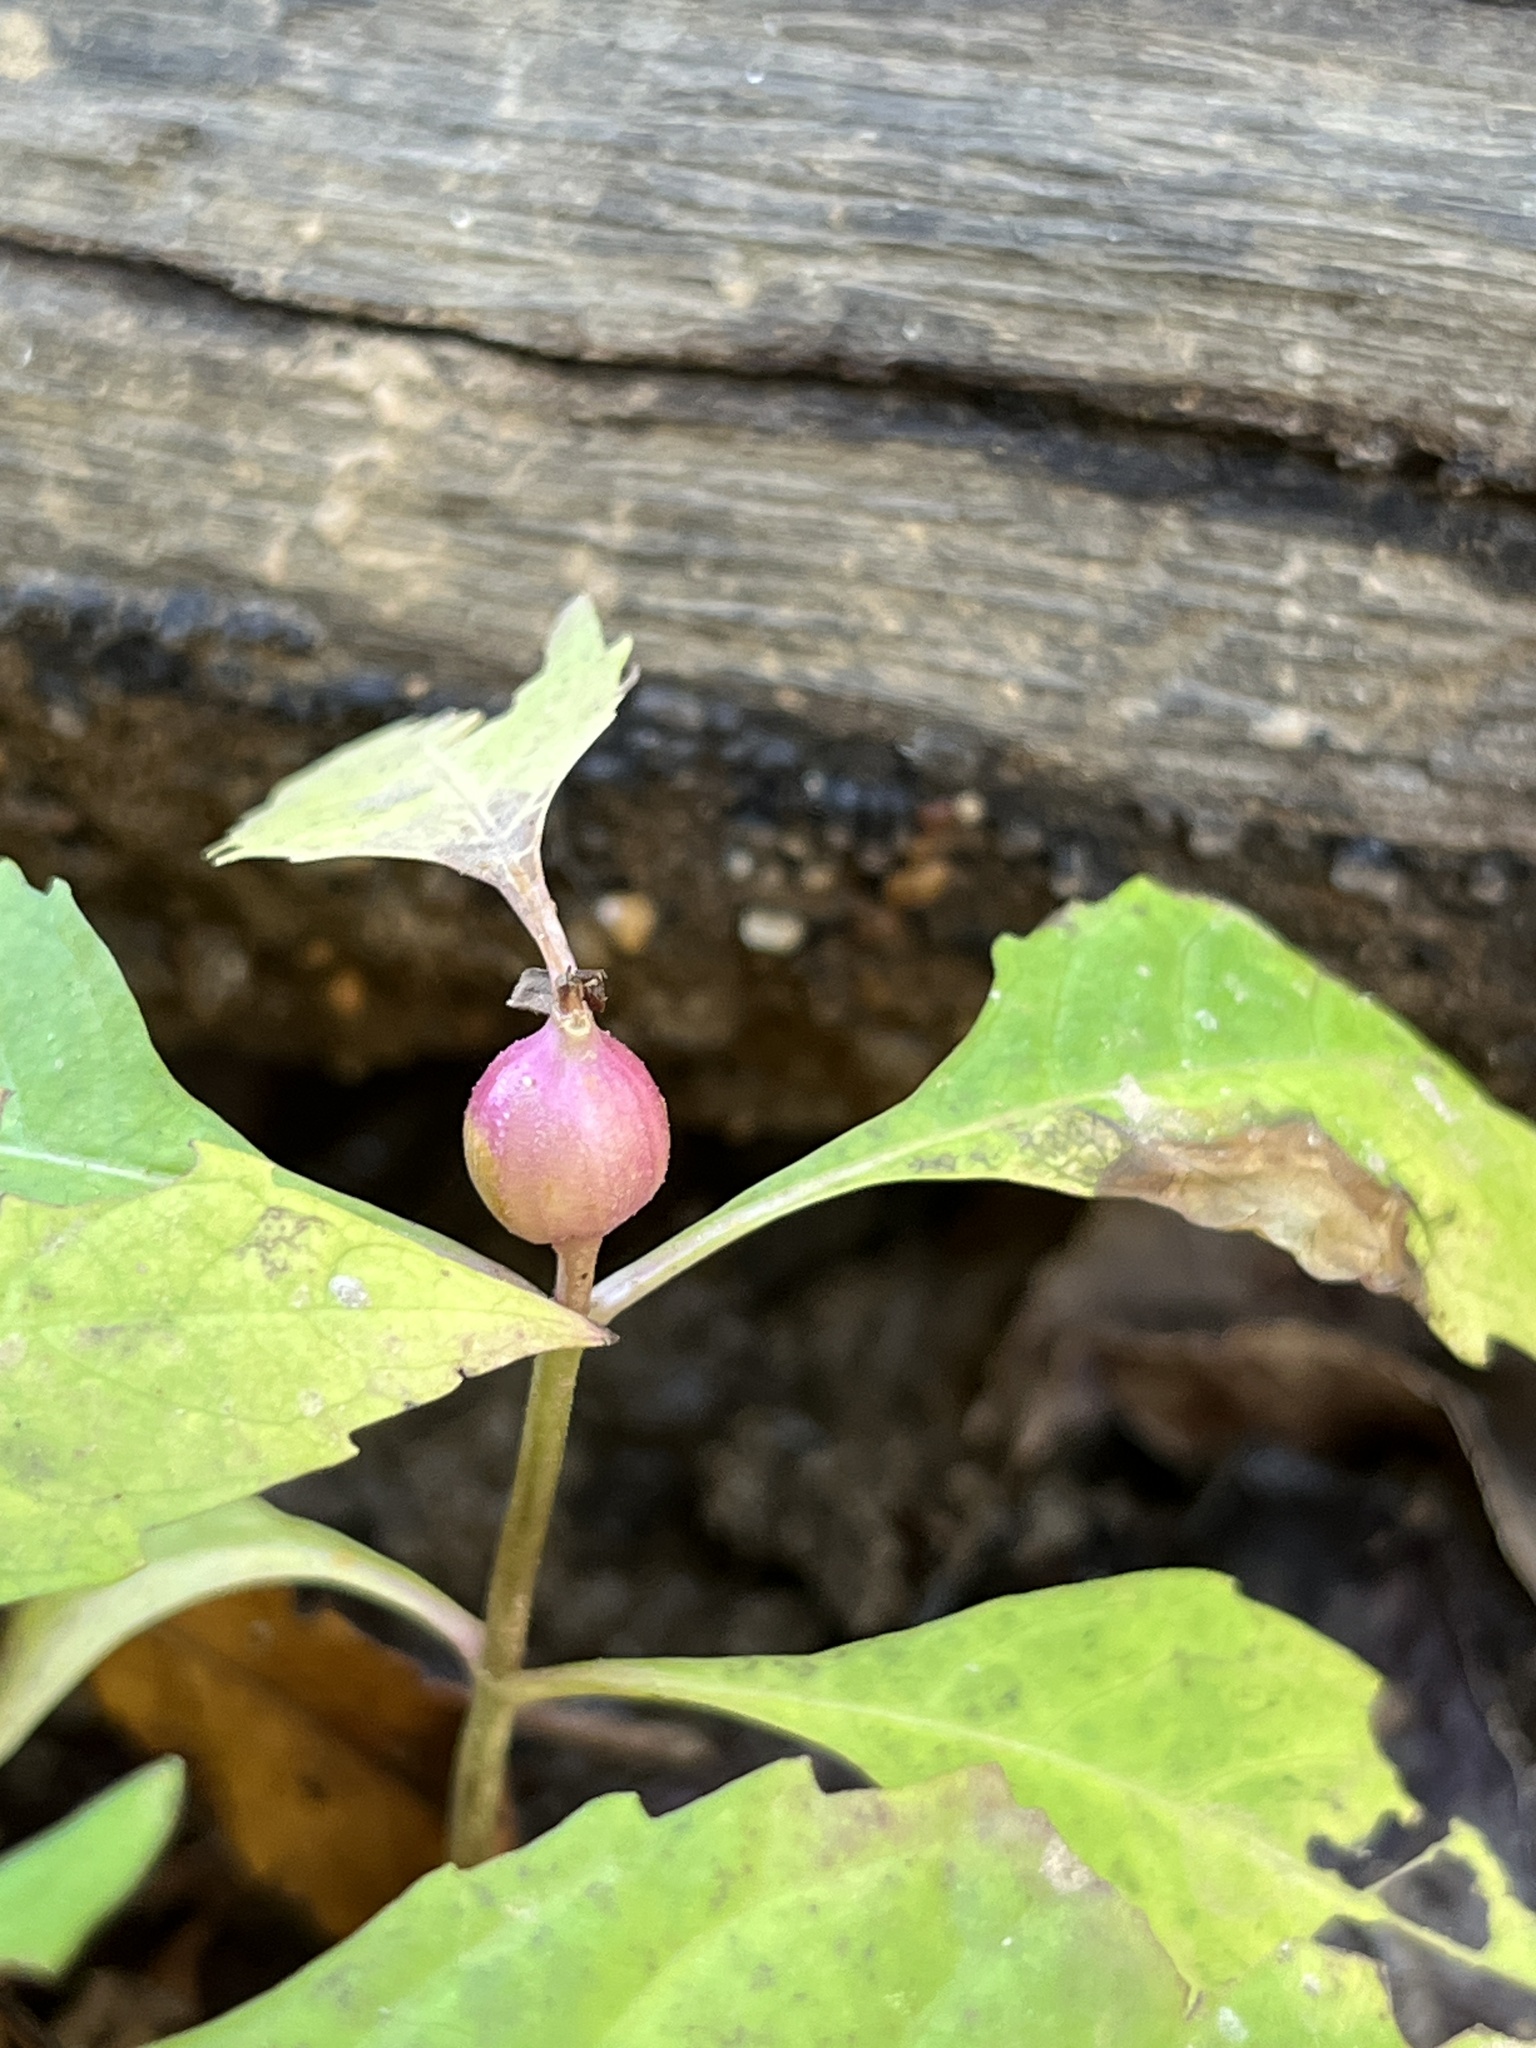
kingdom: Animalia
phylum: Arthropoda
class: Insecta
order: Diptera
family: Cecidomyiidae
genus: Neolasioptera
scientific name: Neolasioptera lycopi
